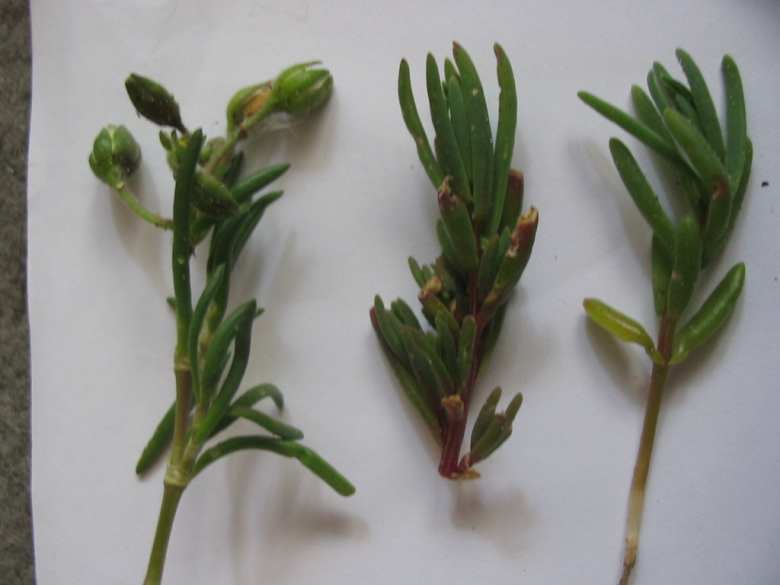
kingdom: Plantae
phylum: Tracheophyta
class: Magnoliopsida
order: Caryophyllales
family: Amaranthaceae
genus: Suaeda
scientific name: Suaeda maritima
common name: Annual sea-blite
